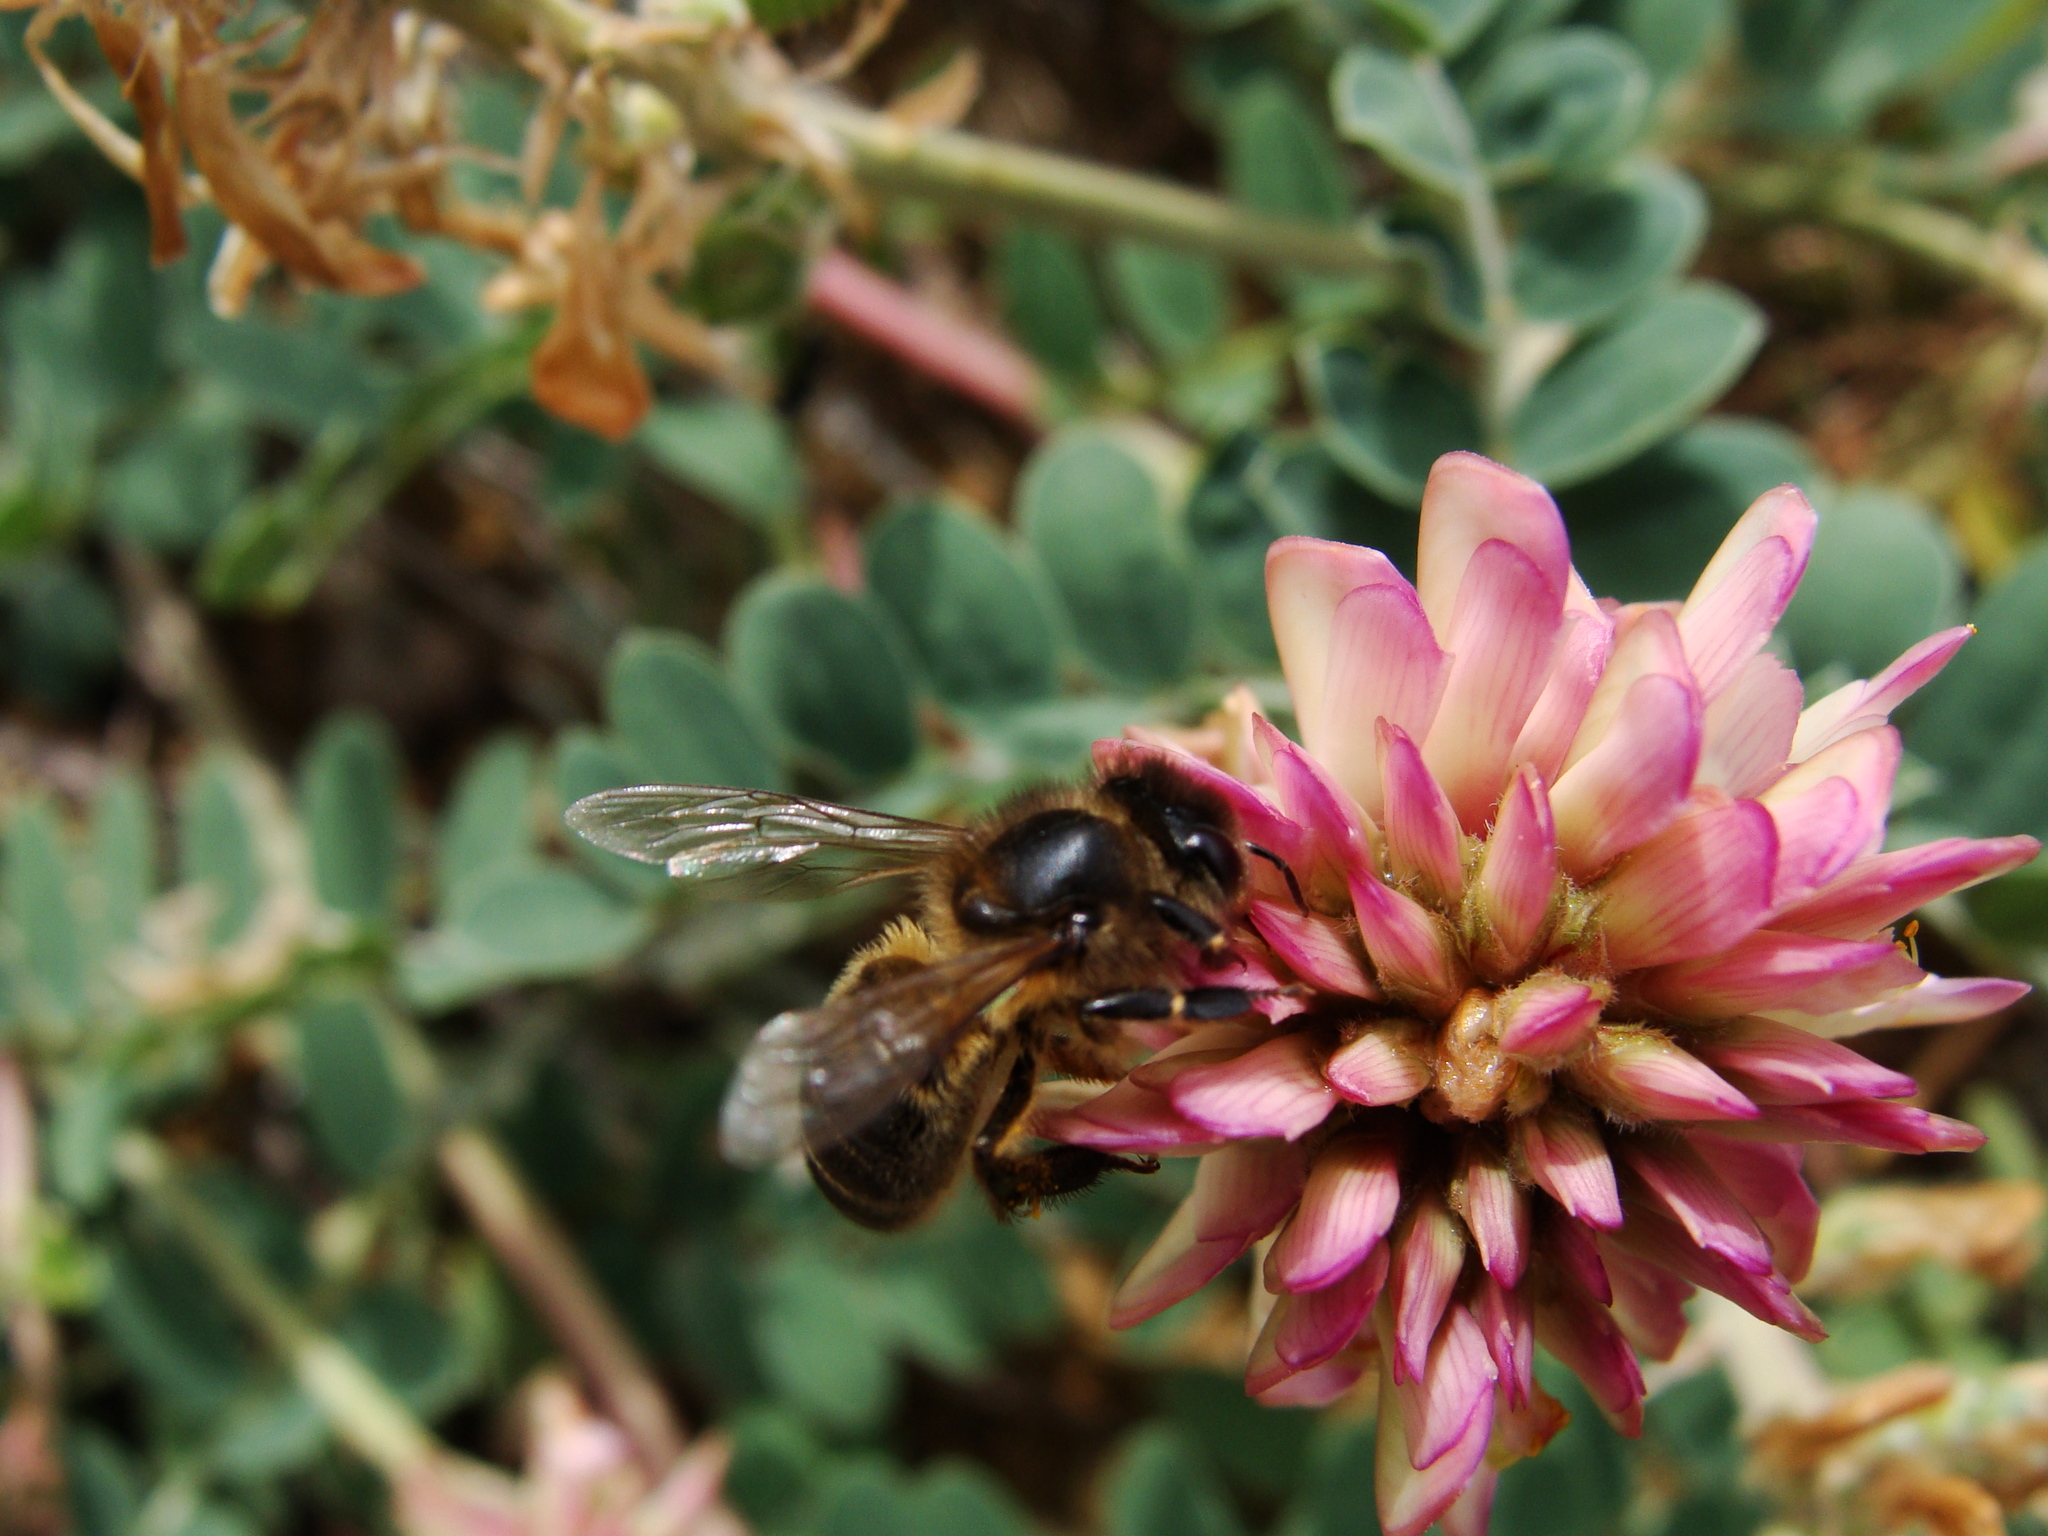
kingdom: Animalia
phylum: Arthropoda
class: Insecta
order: Hymenoptera
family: Apidae
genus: Apis
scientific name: Apis mellifera
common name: Honey bee
